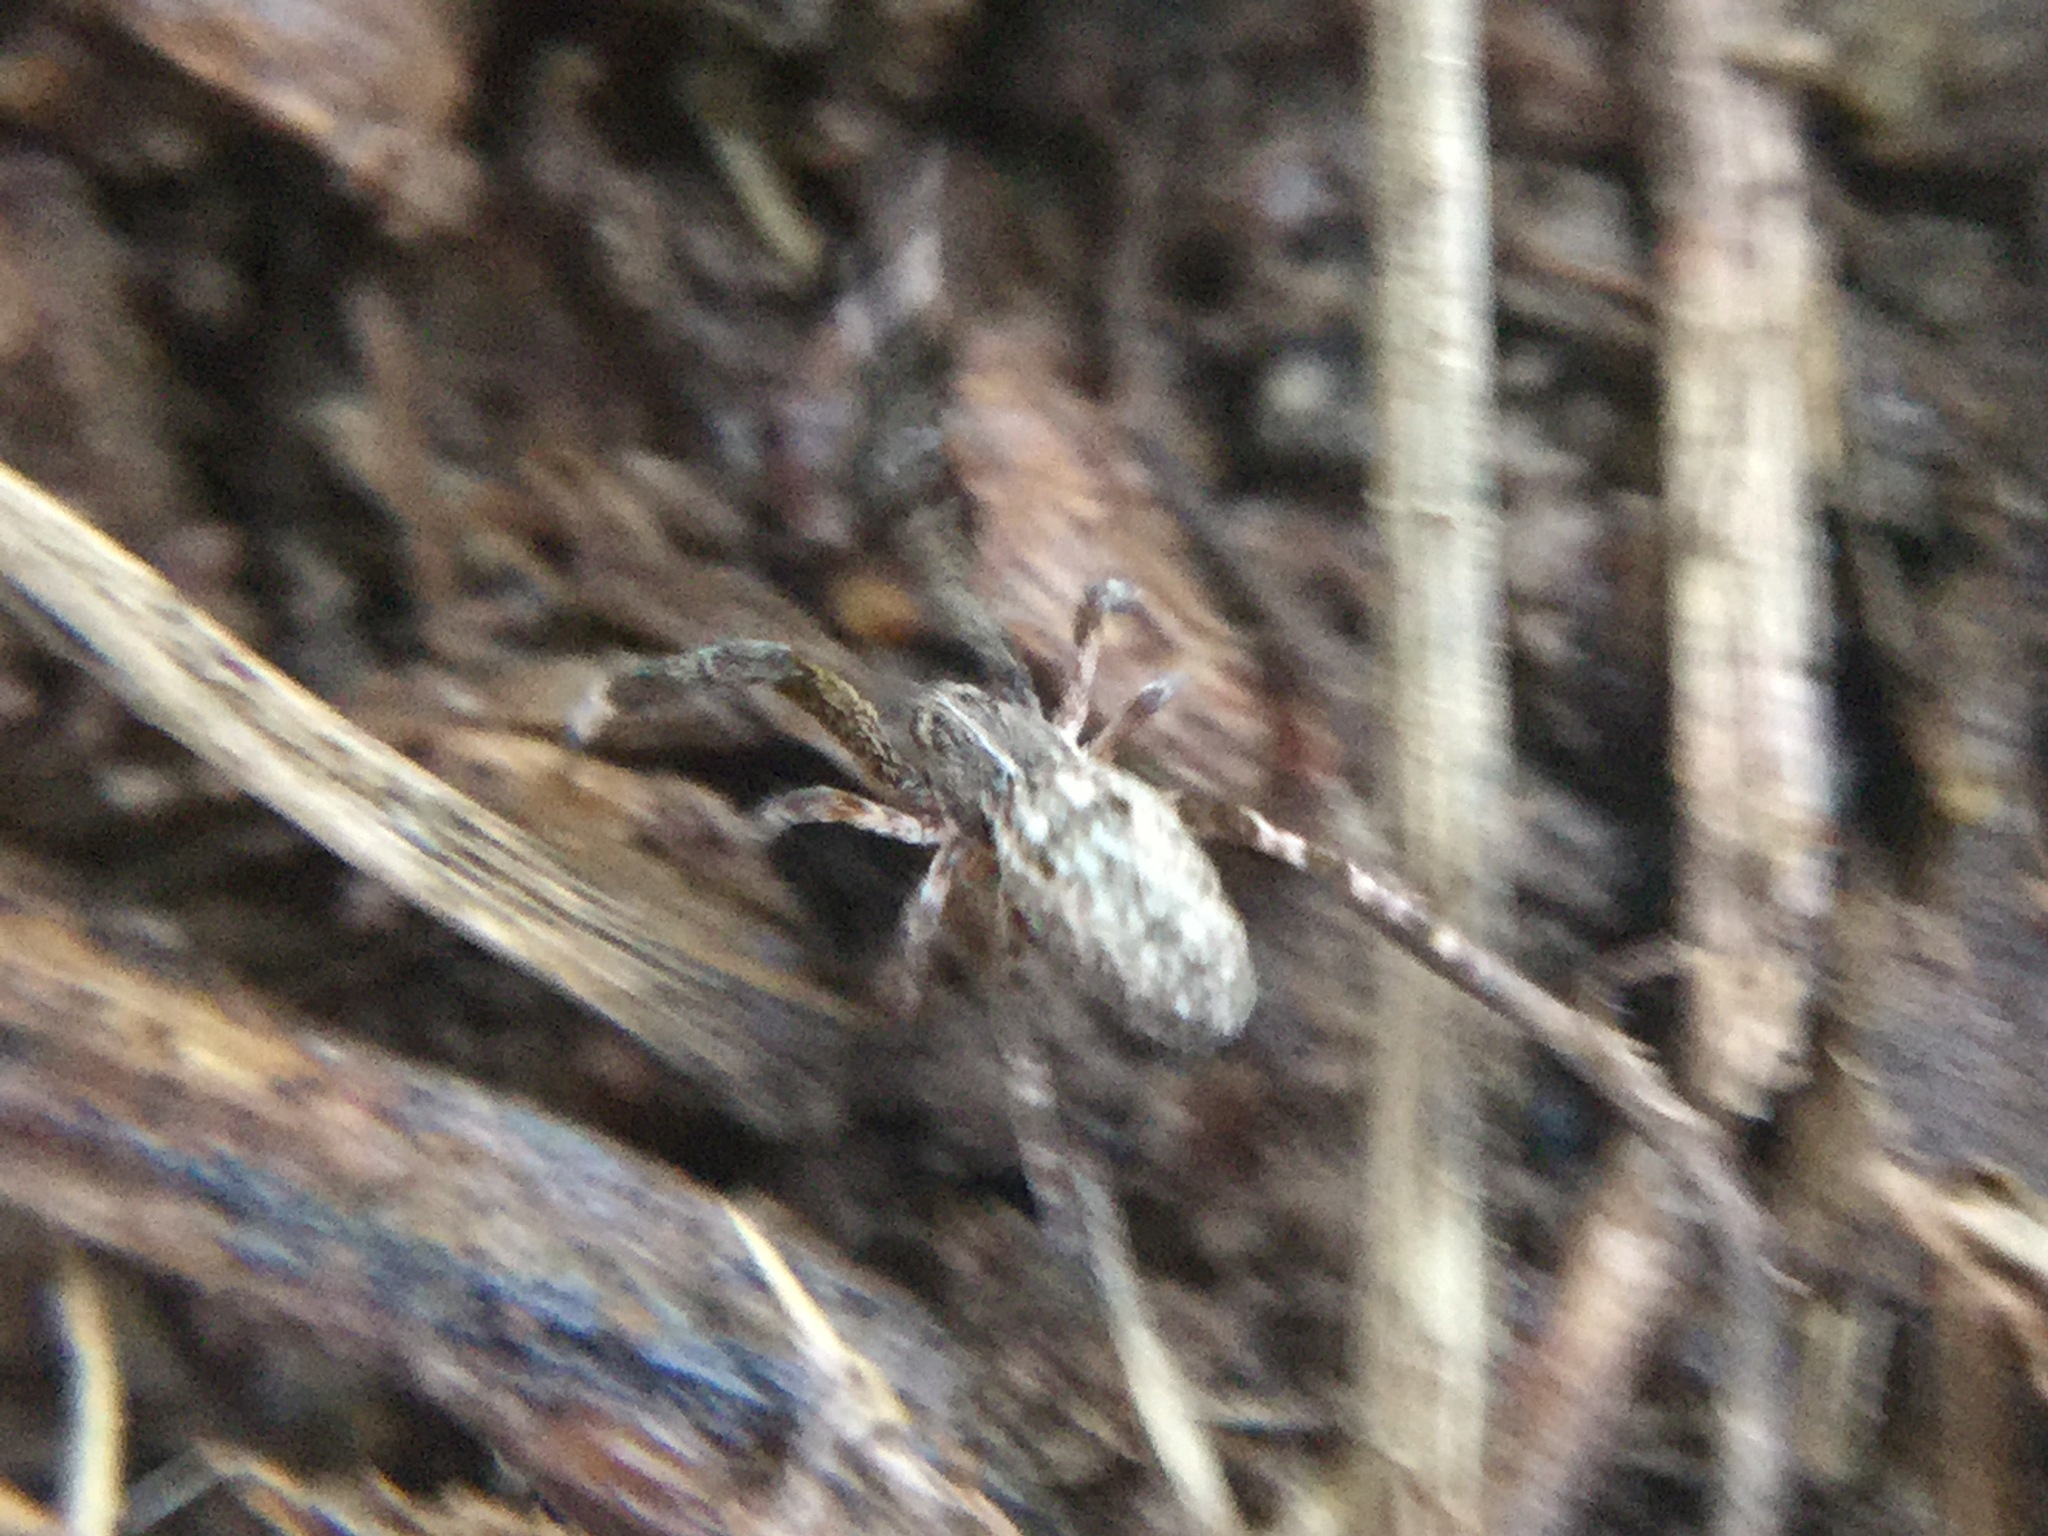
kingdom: Animalia
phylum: Arthropoda
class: Arachnida
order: Araneae
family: Uloboridae
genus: Uloborus
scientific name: Uloborus glomosus
